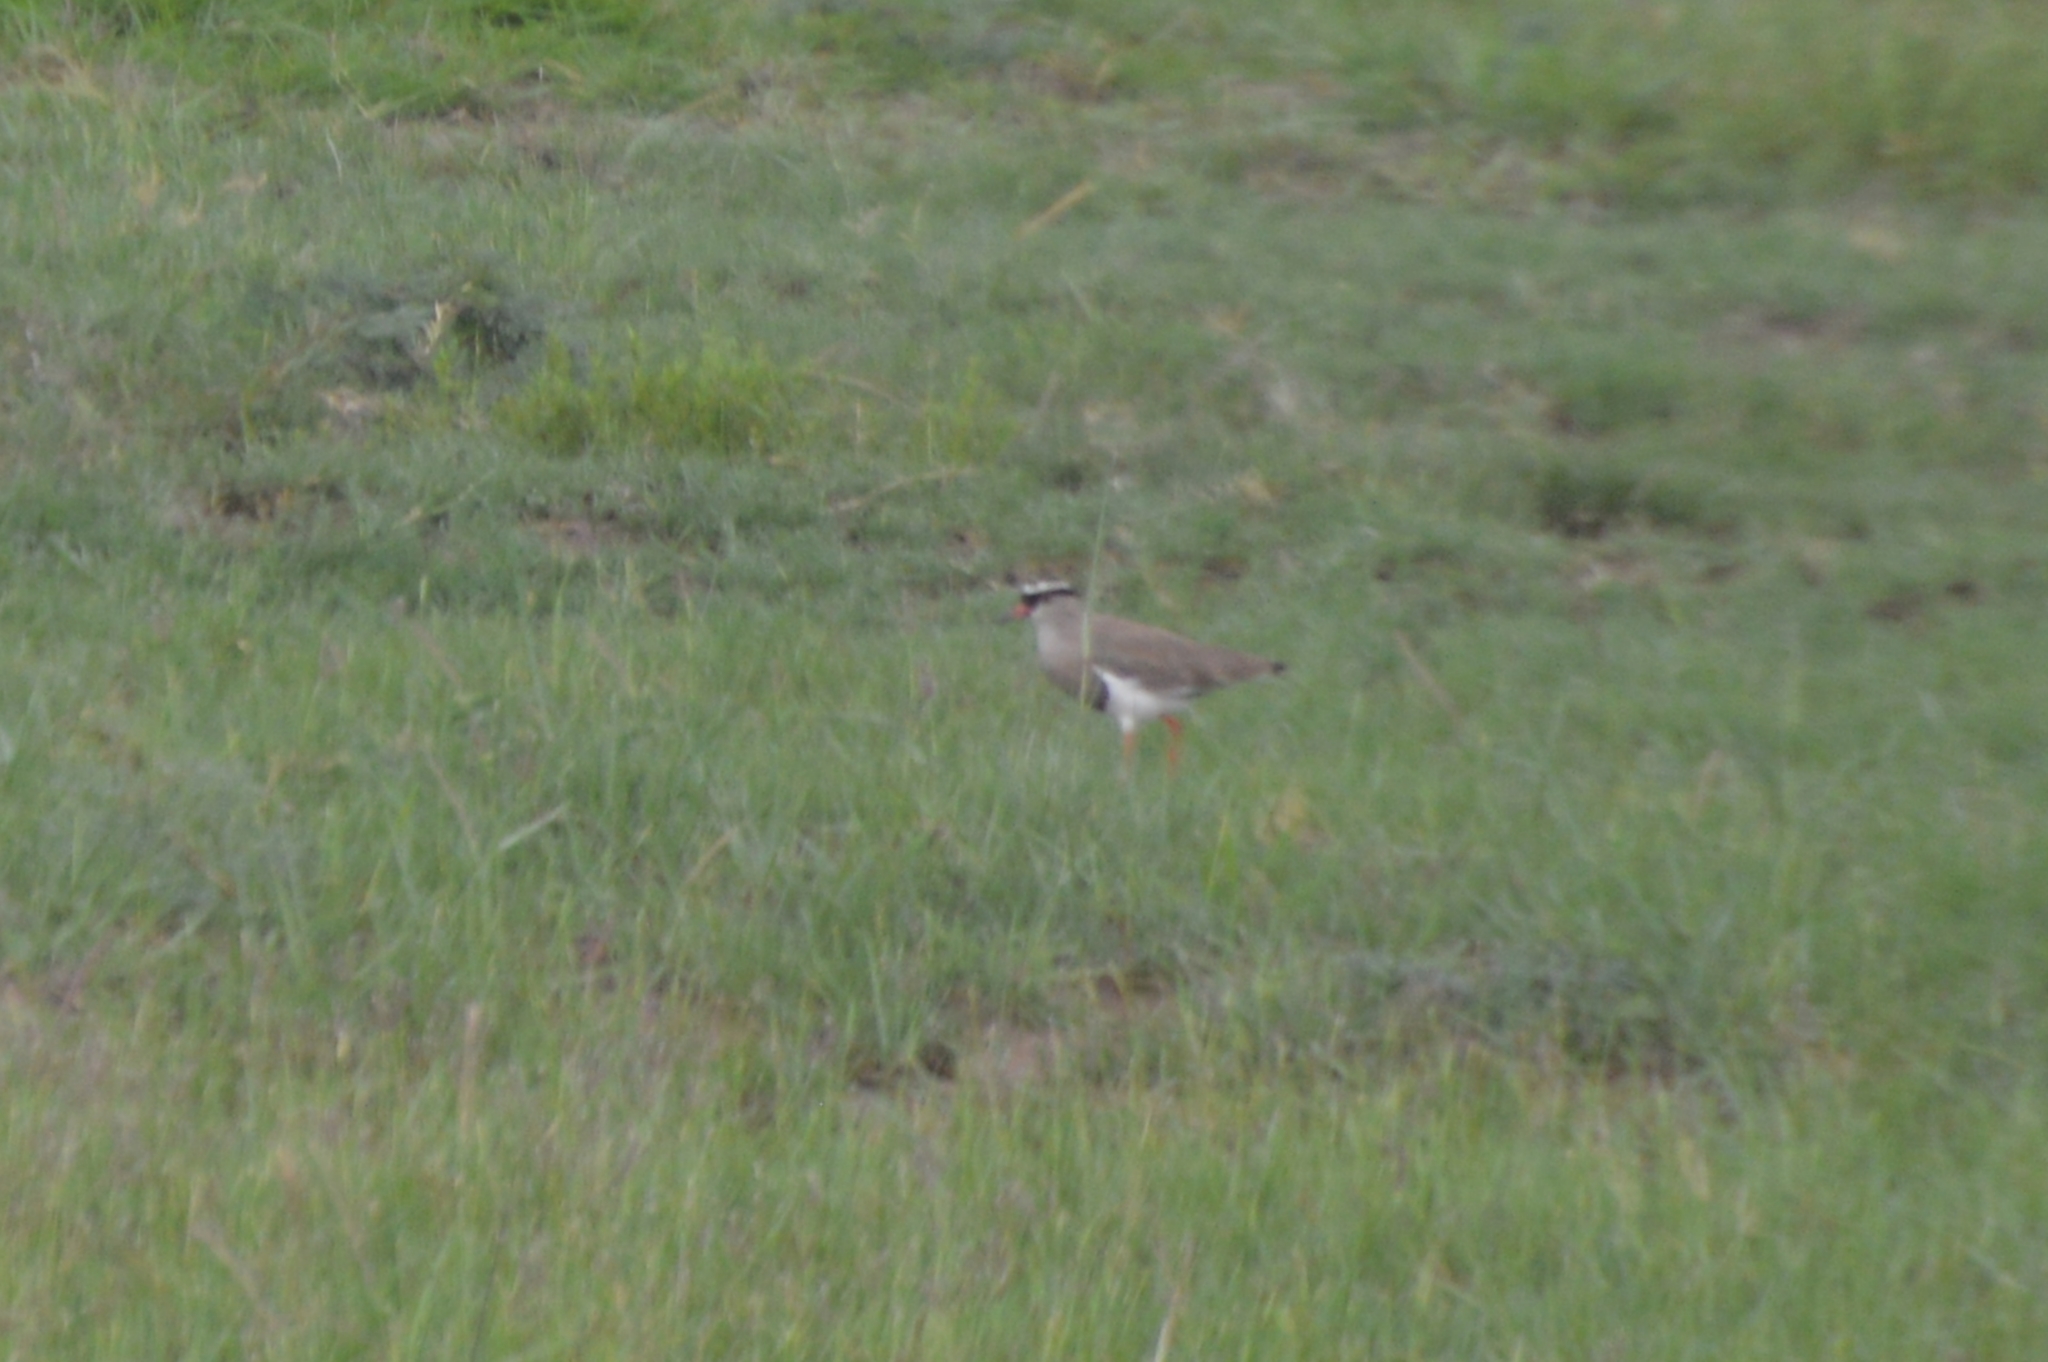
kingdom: Animalia
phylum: Chordata
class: Aves
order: Charadriiformes
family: Charadriidae
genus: Vanellus
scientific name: Vanellus coronatus
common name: Crowned lapwing
